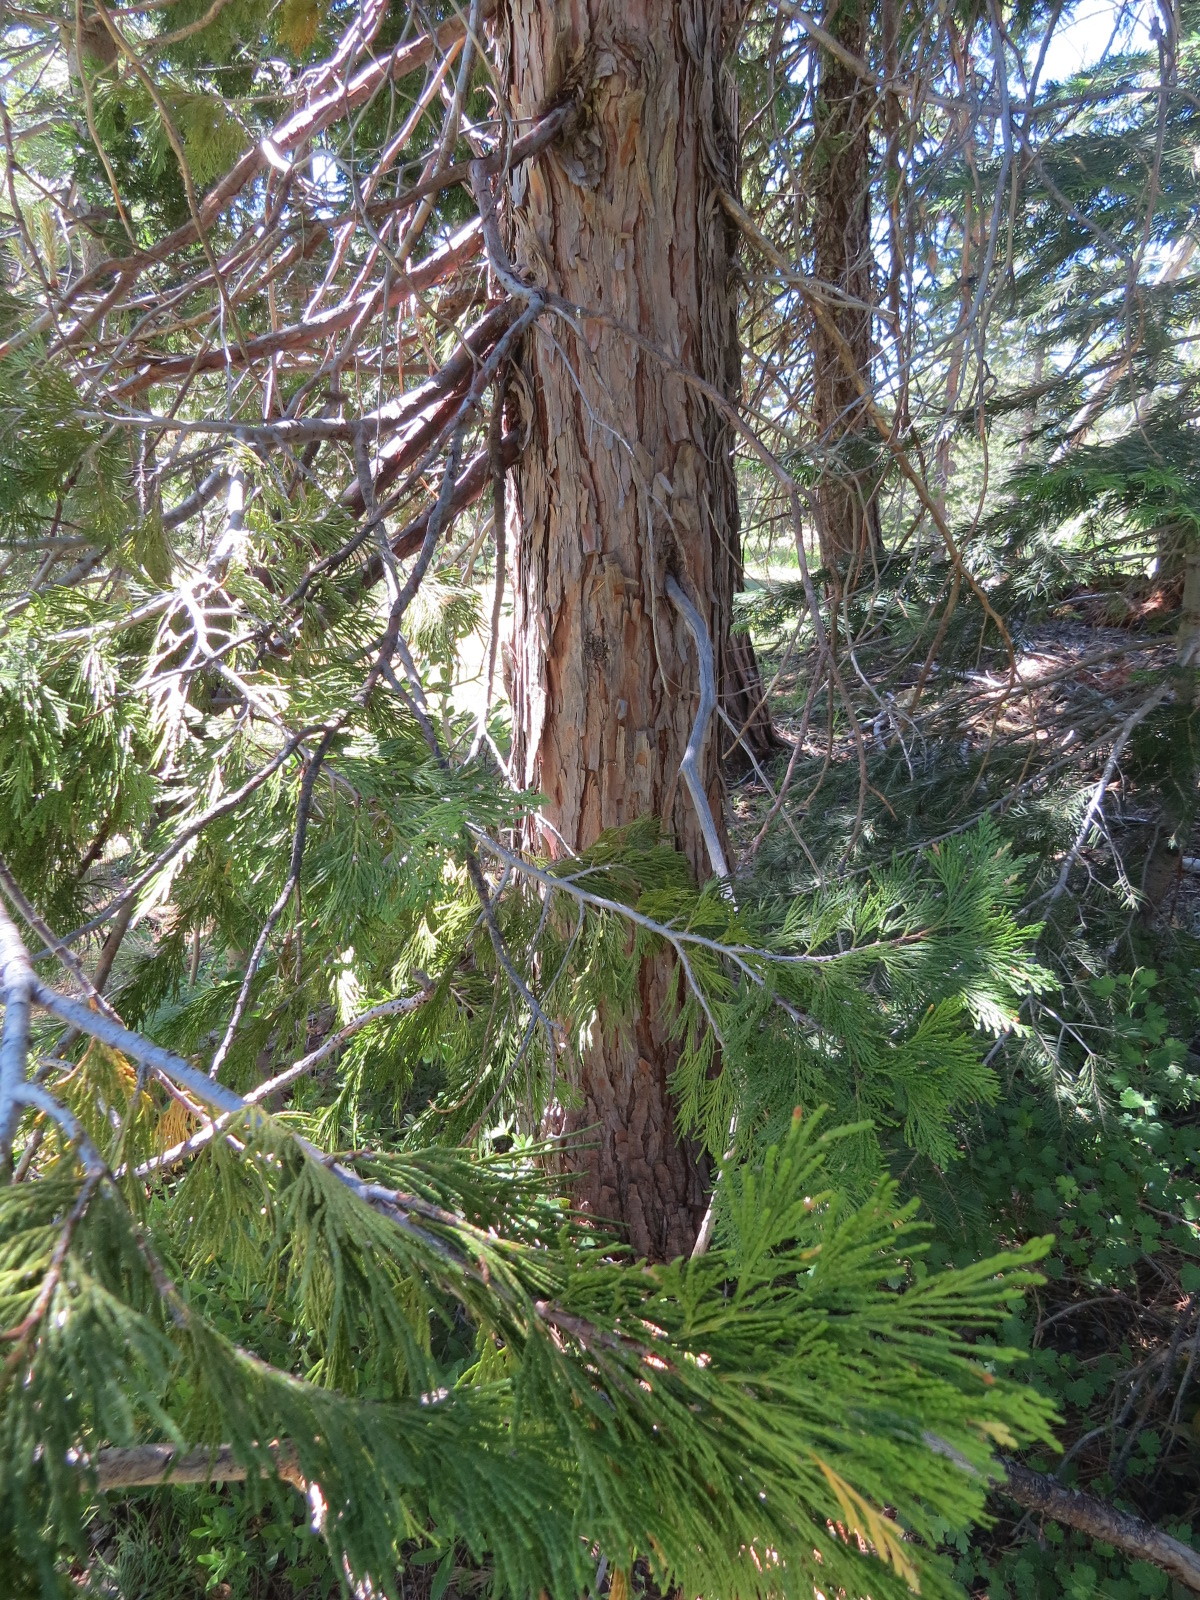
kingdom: Plantae
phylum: Tracheophyta
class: Pinopsida
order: Pinales
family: Cupressaceae
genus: Calocedrus
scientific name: Calocedrus decurrens
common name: Californian incense-cedar
